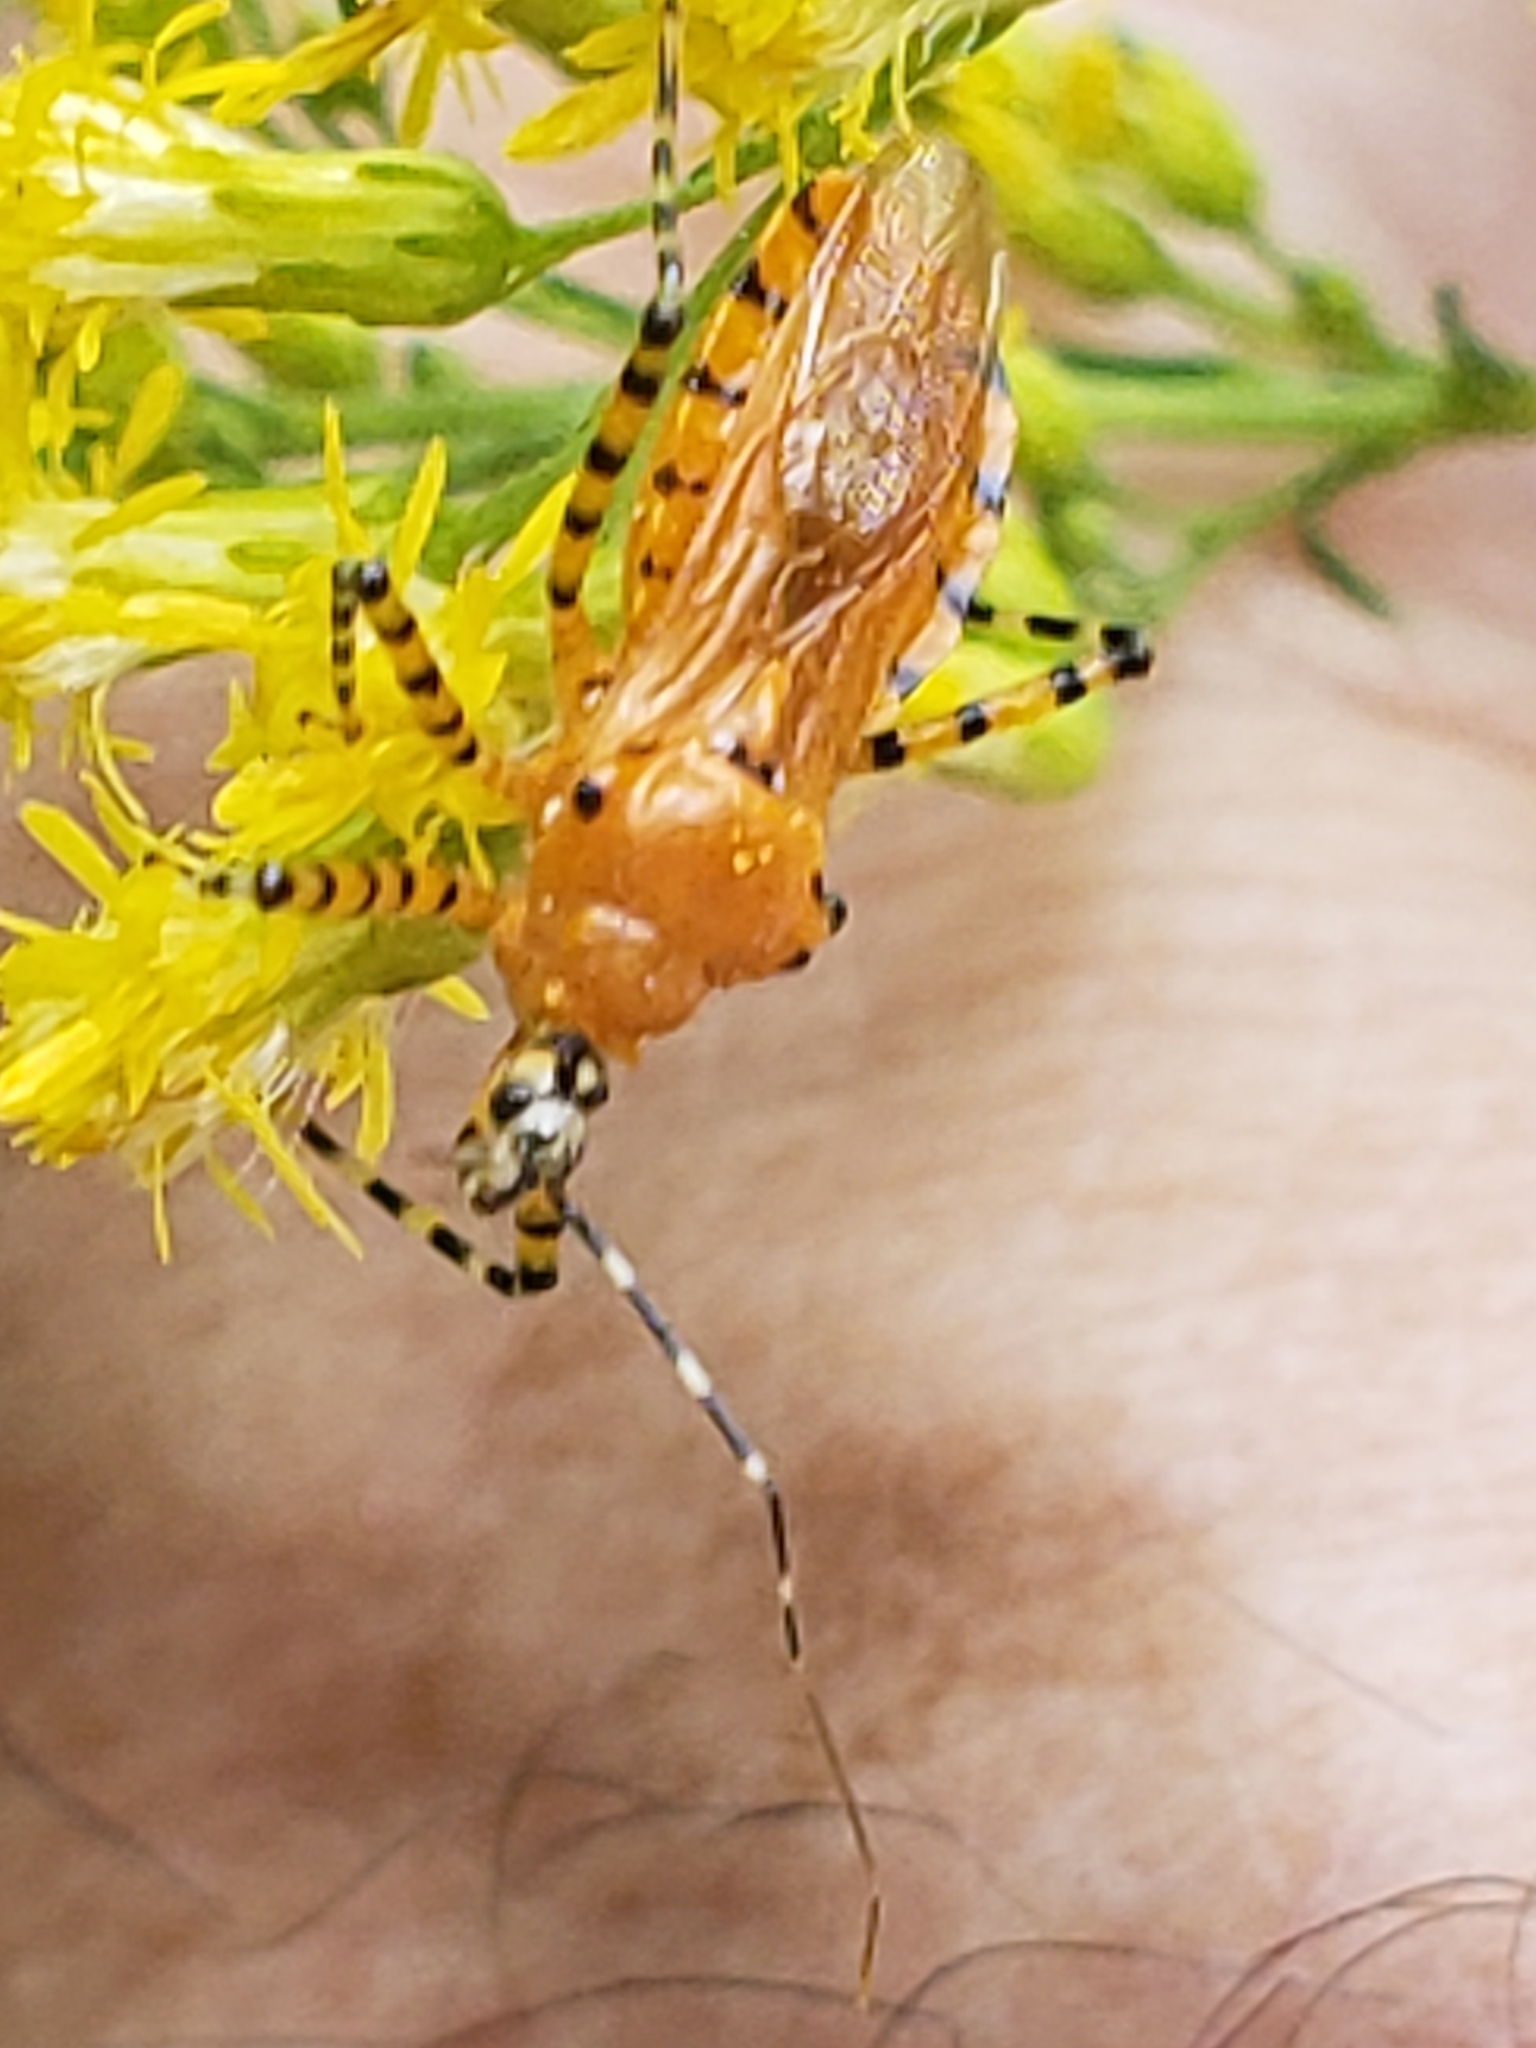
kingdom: Animalia
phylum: Arthropoda
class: Insecta
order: Hemiptera
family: Reduviidae
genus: Pselliopus
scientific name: Pselliopus barberi
